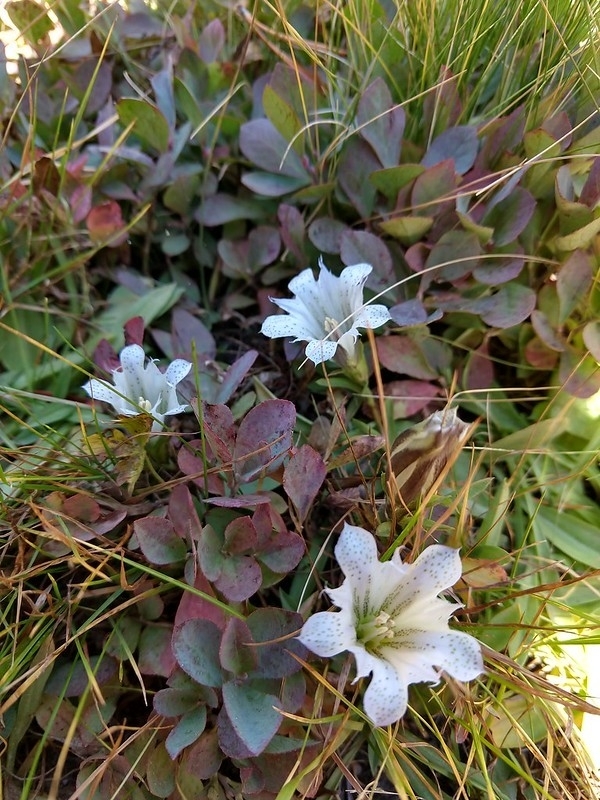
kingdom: Plantae
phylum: Tracheophyta
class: Magnoliopsida
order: Gentianales
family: Gentianaceae
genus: Gentiana
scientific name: Gentiana newberryi
